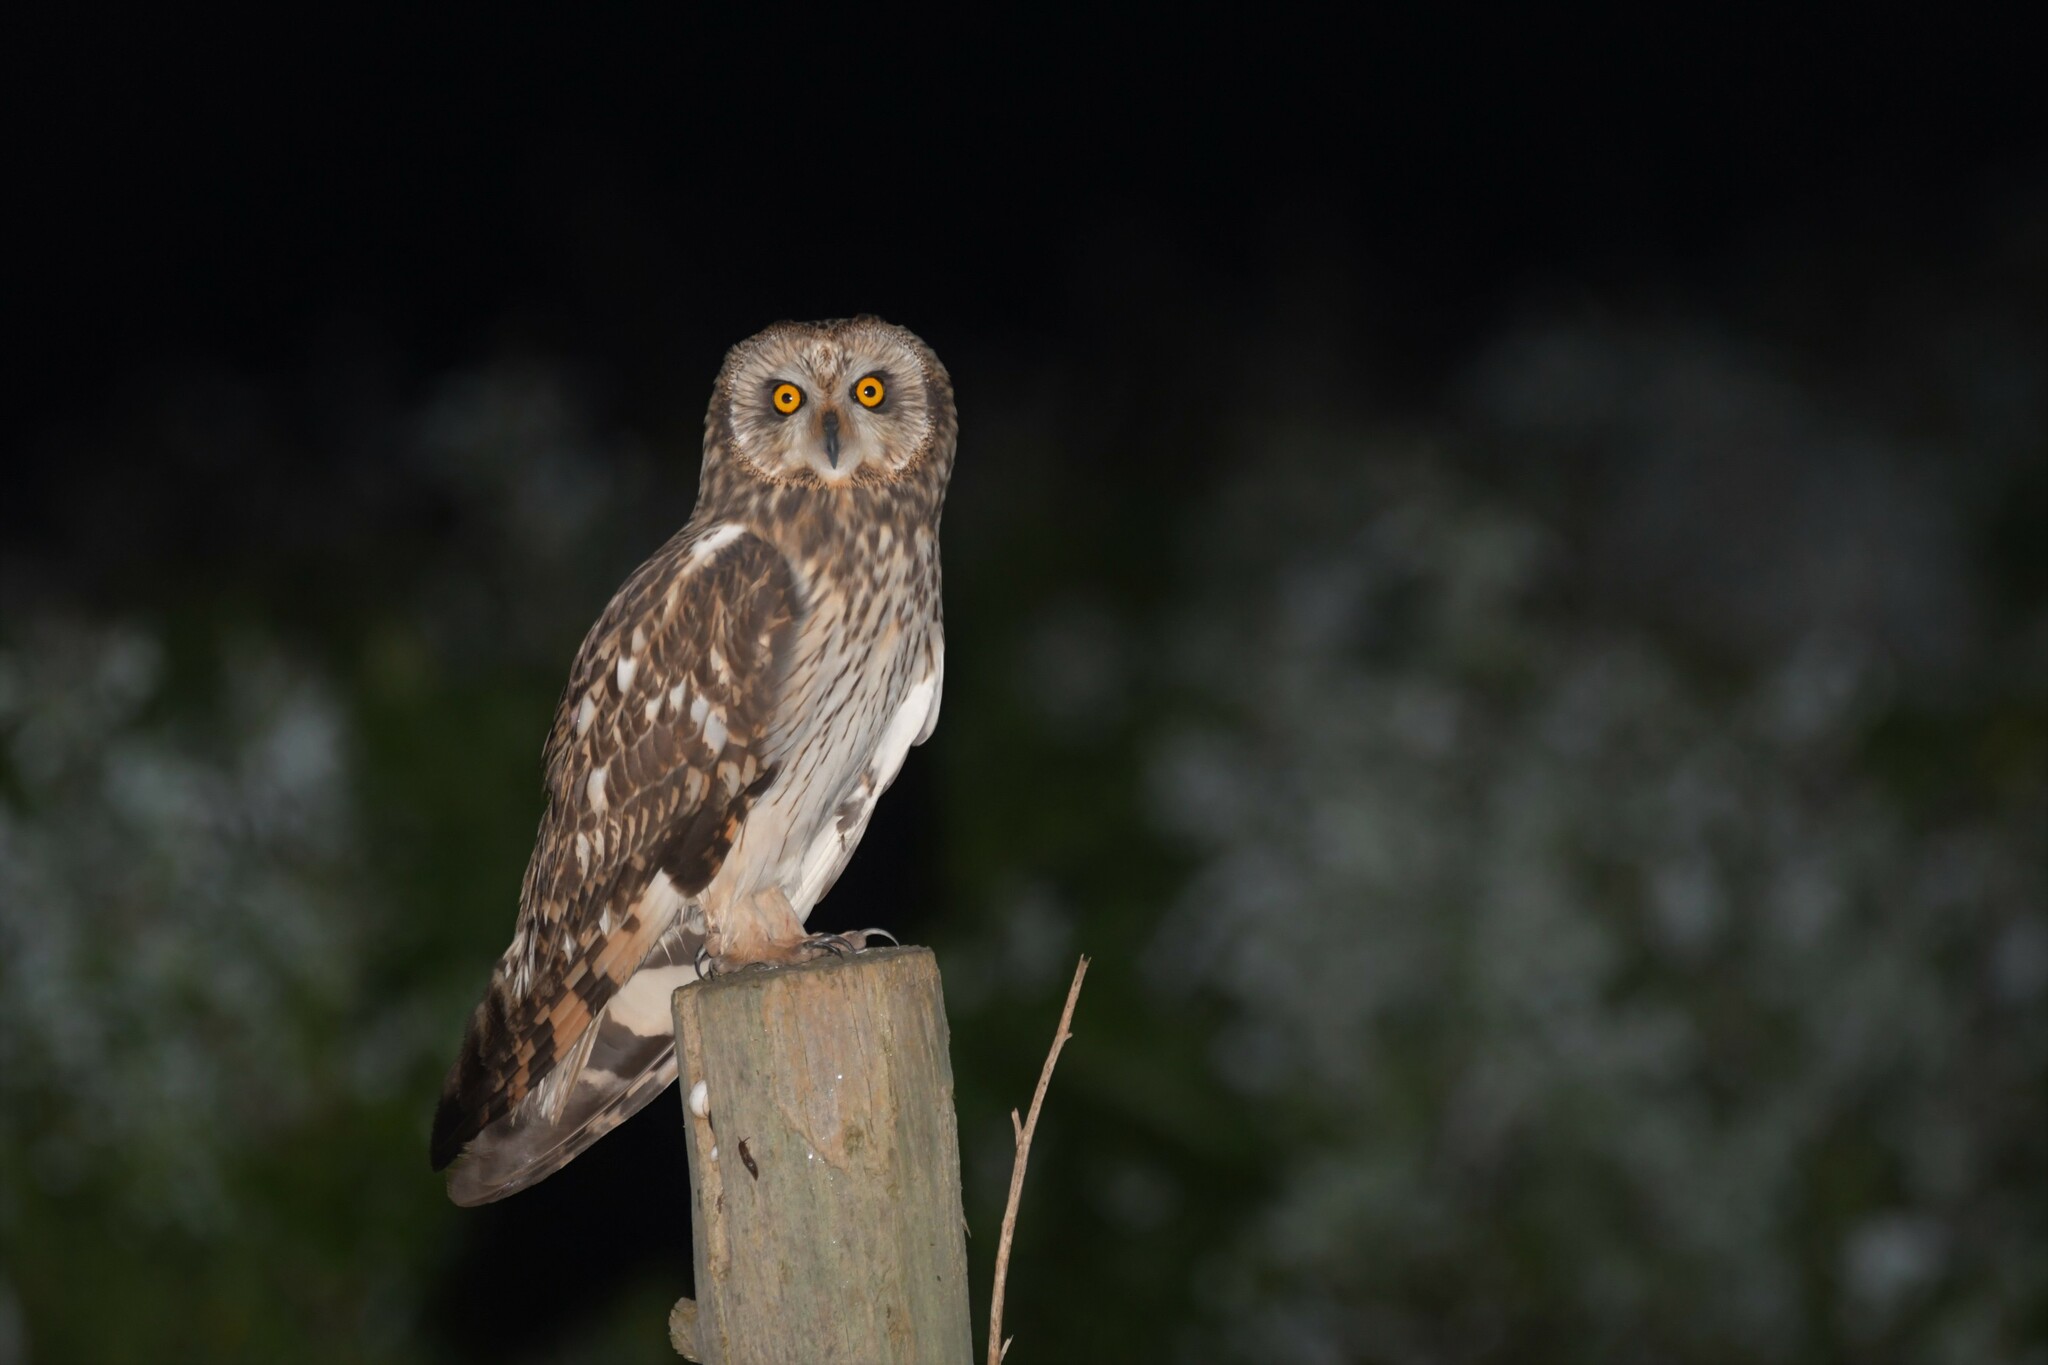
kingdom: Animalia
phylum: Chordata
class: Aves
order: Strigiformes
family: Strigidae
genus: Asio
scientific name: Asio flammeus
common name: Short-eared owl
